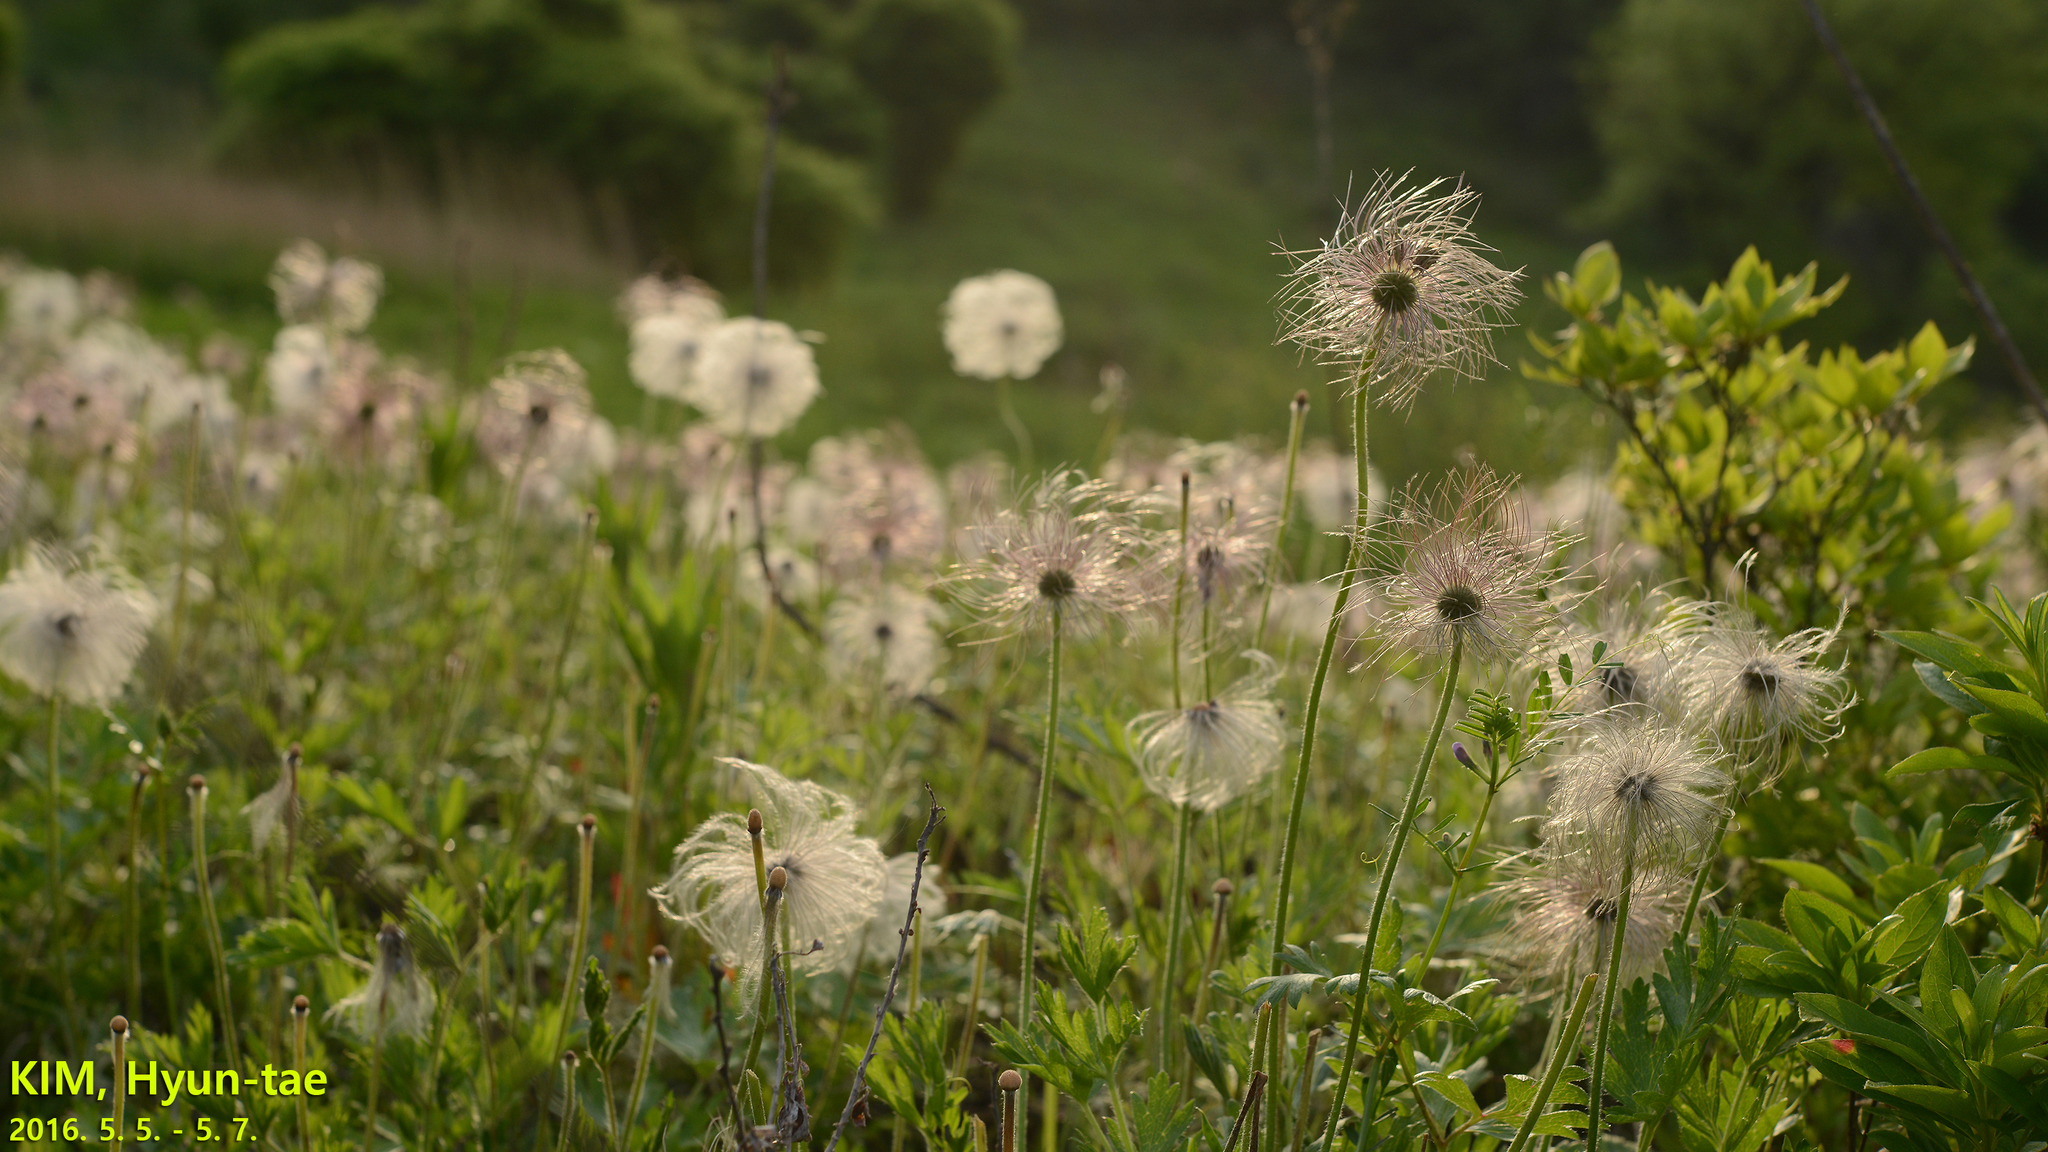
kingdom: Plantae
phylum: Tracheophyta
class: Magnoliopsida
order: Ranunculales
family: Ranunculaceae
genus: Pulsatilla
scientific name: Pulsatilla cernua
